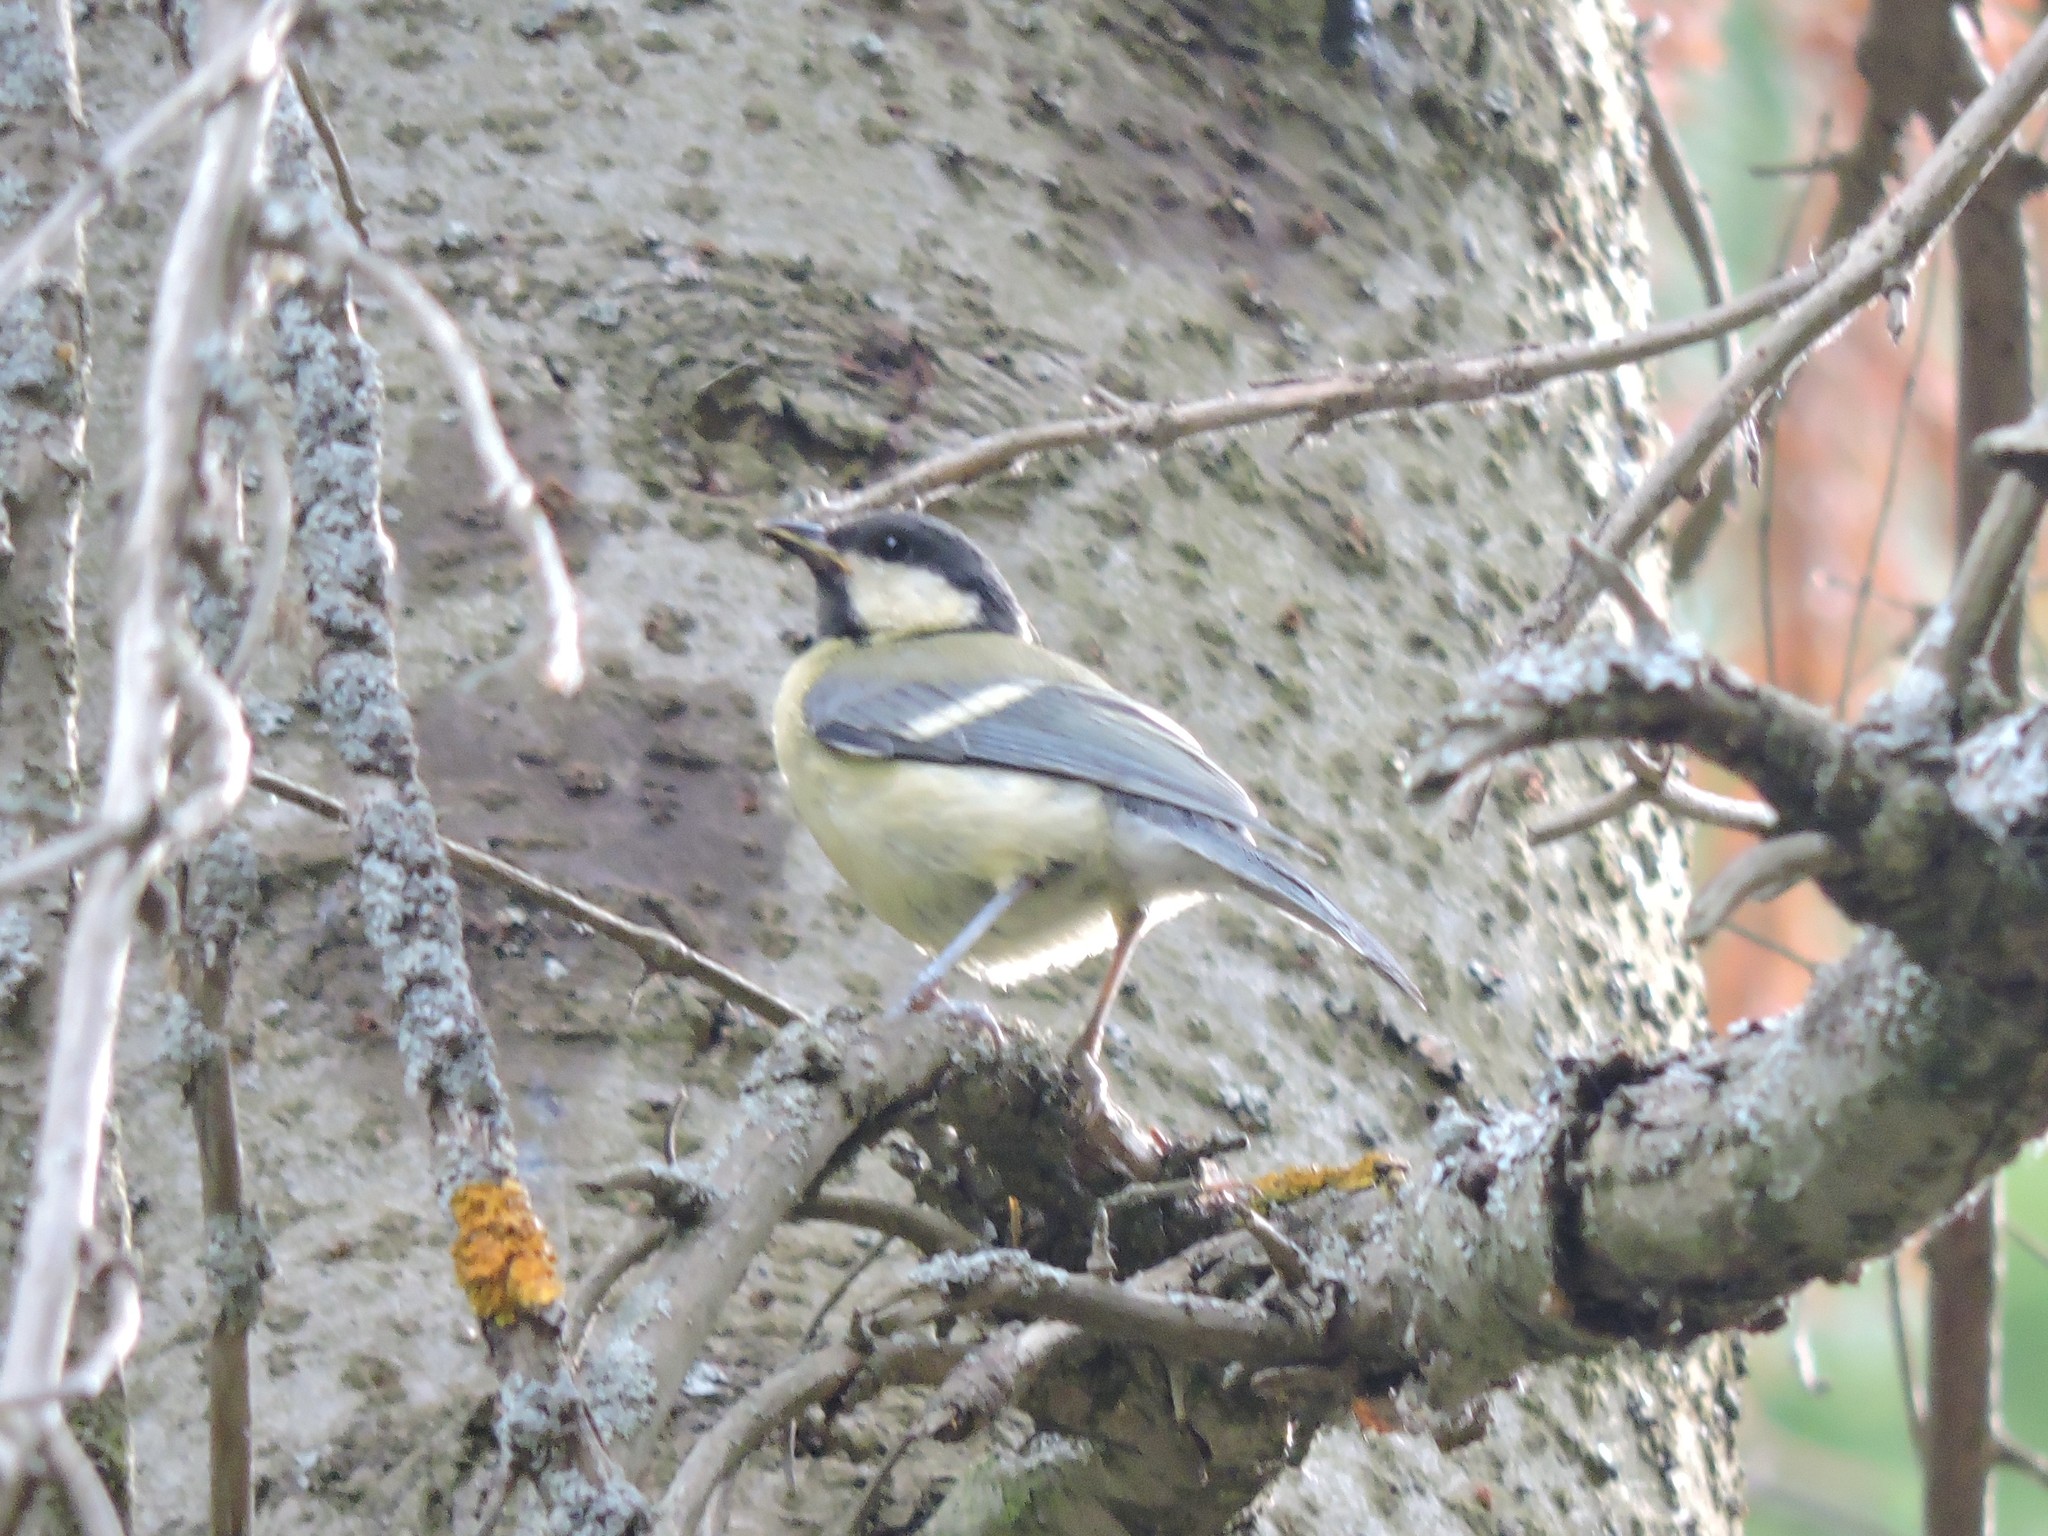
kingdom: Animalia
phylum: Chordata
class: Aves
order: Passeriformes
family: Paridae
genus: Parus
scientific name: Parus major
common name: Great tit
